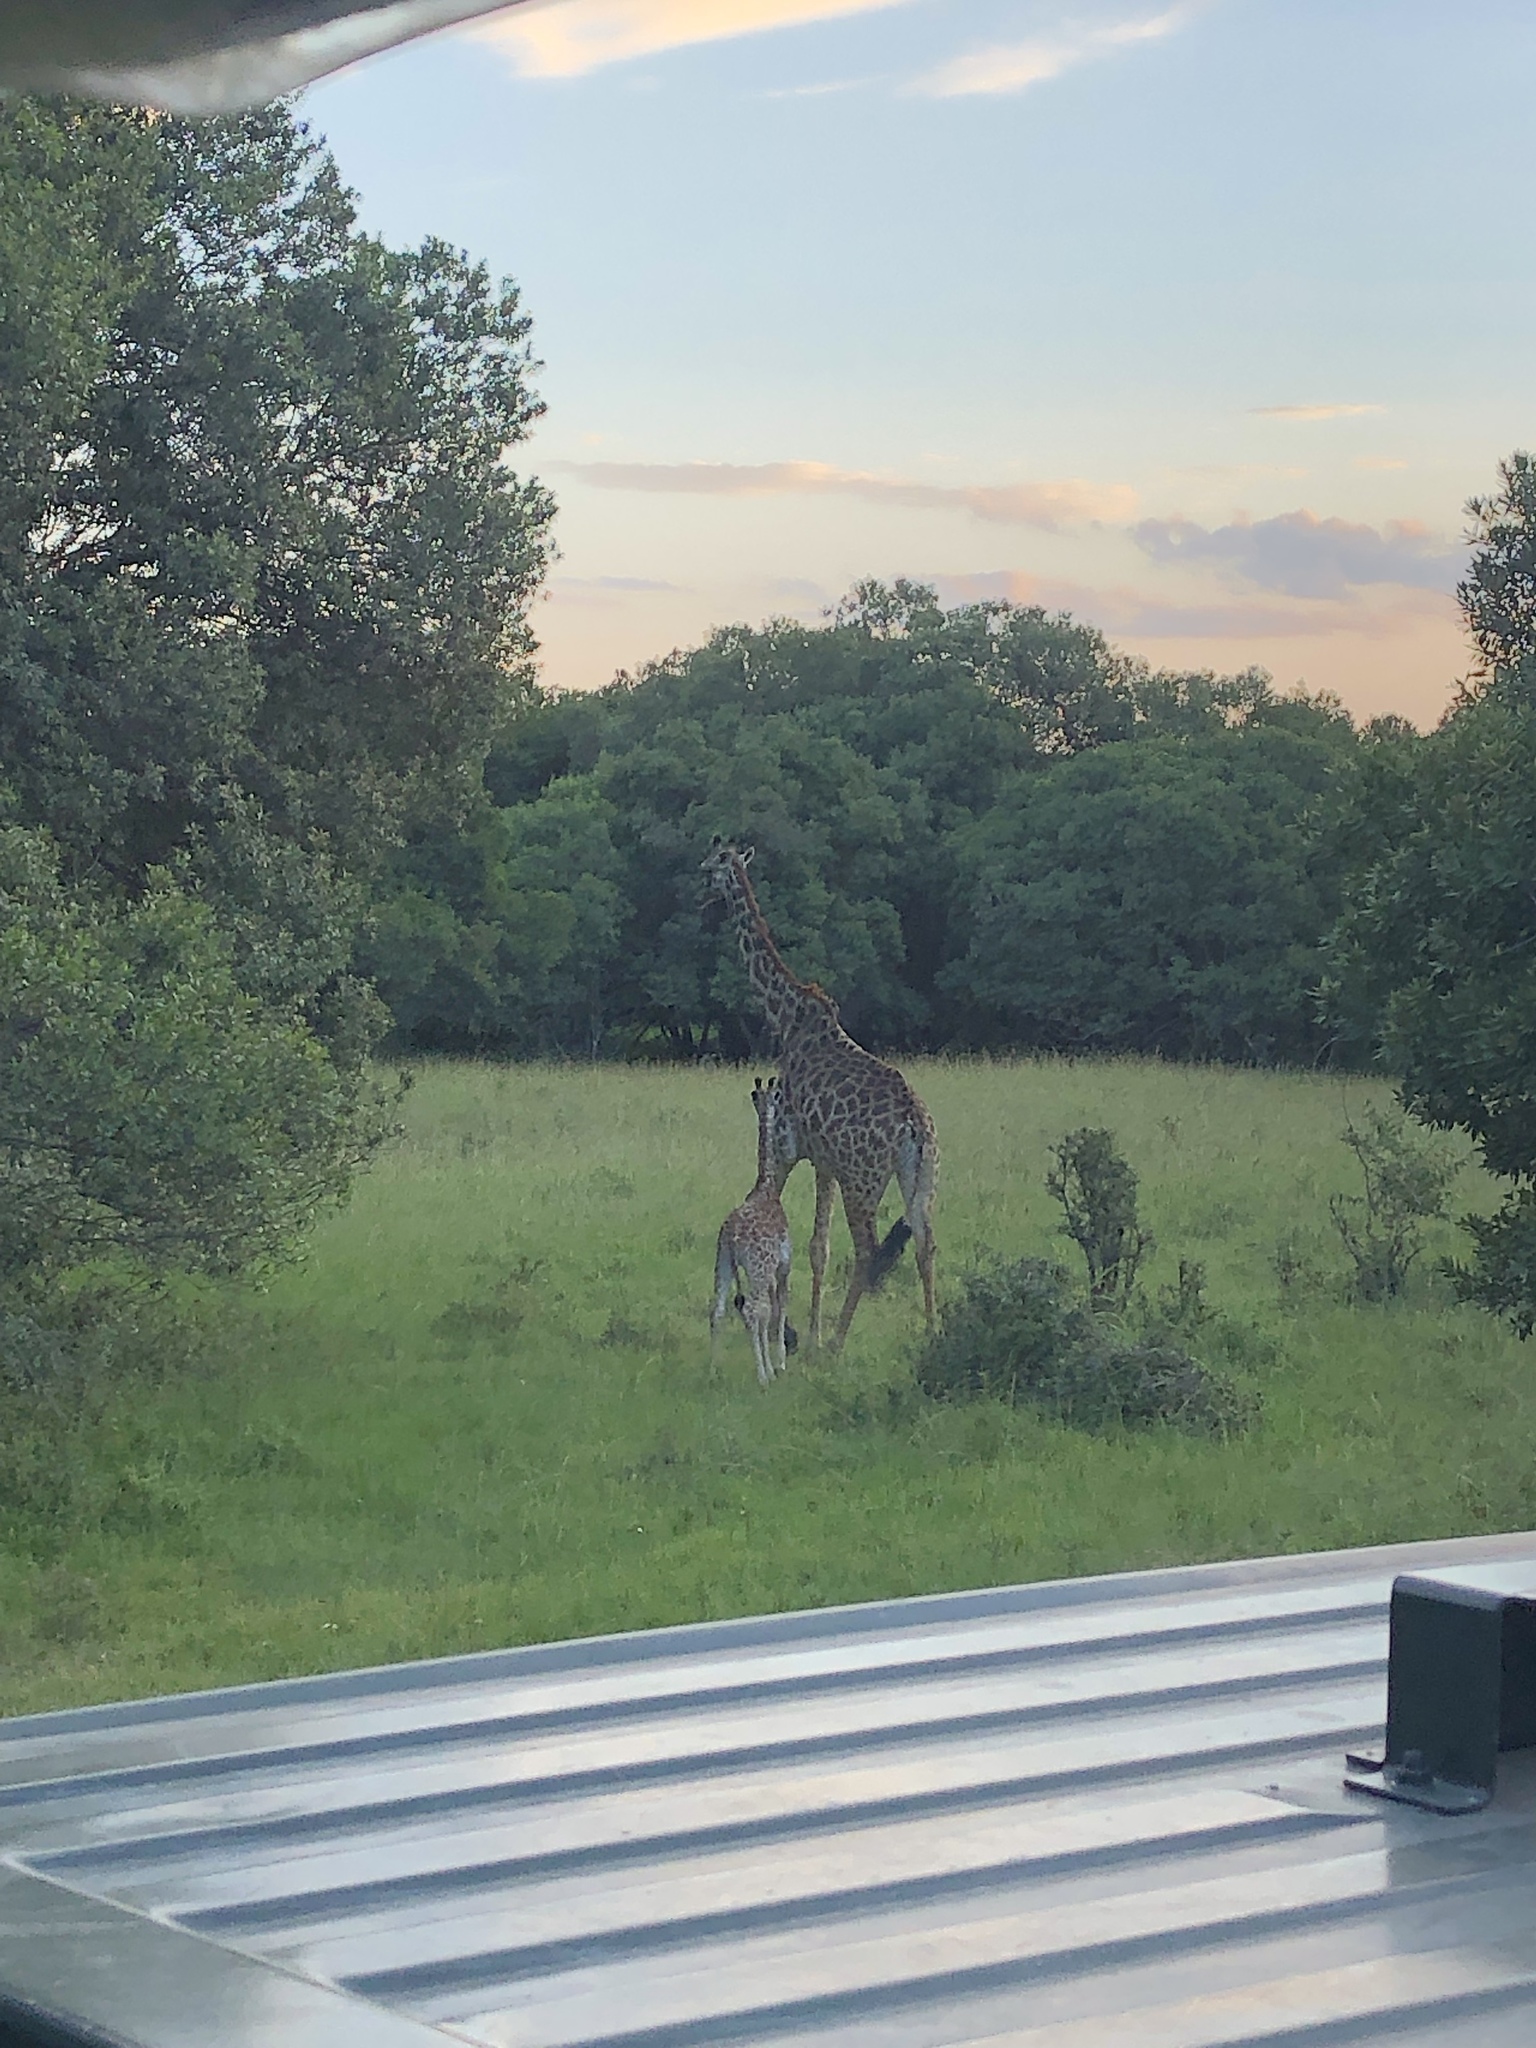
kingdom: Animalia
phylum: Chordata
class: Mammalia
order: Artiodactyla
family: Giraffidae
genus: Giraffa
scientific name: Giraffa tippelskirchi
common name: Masai giraffe
